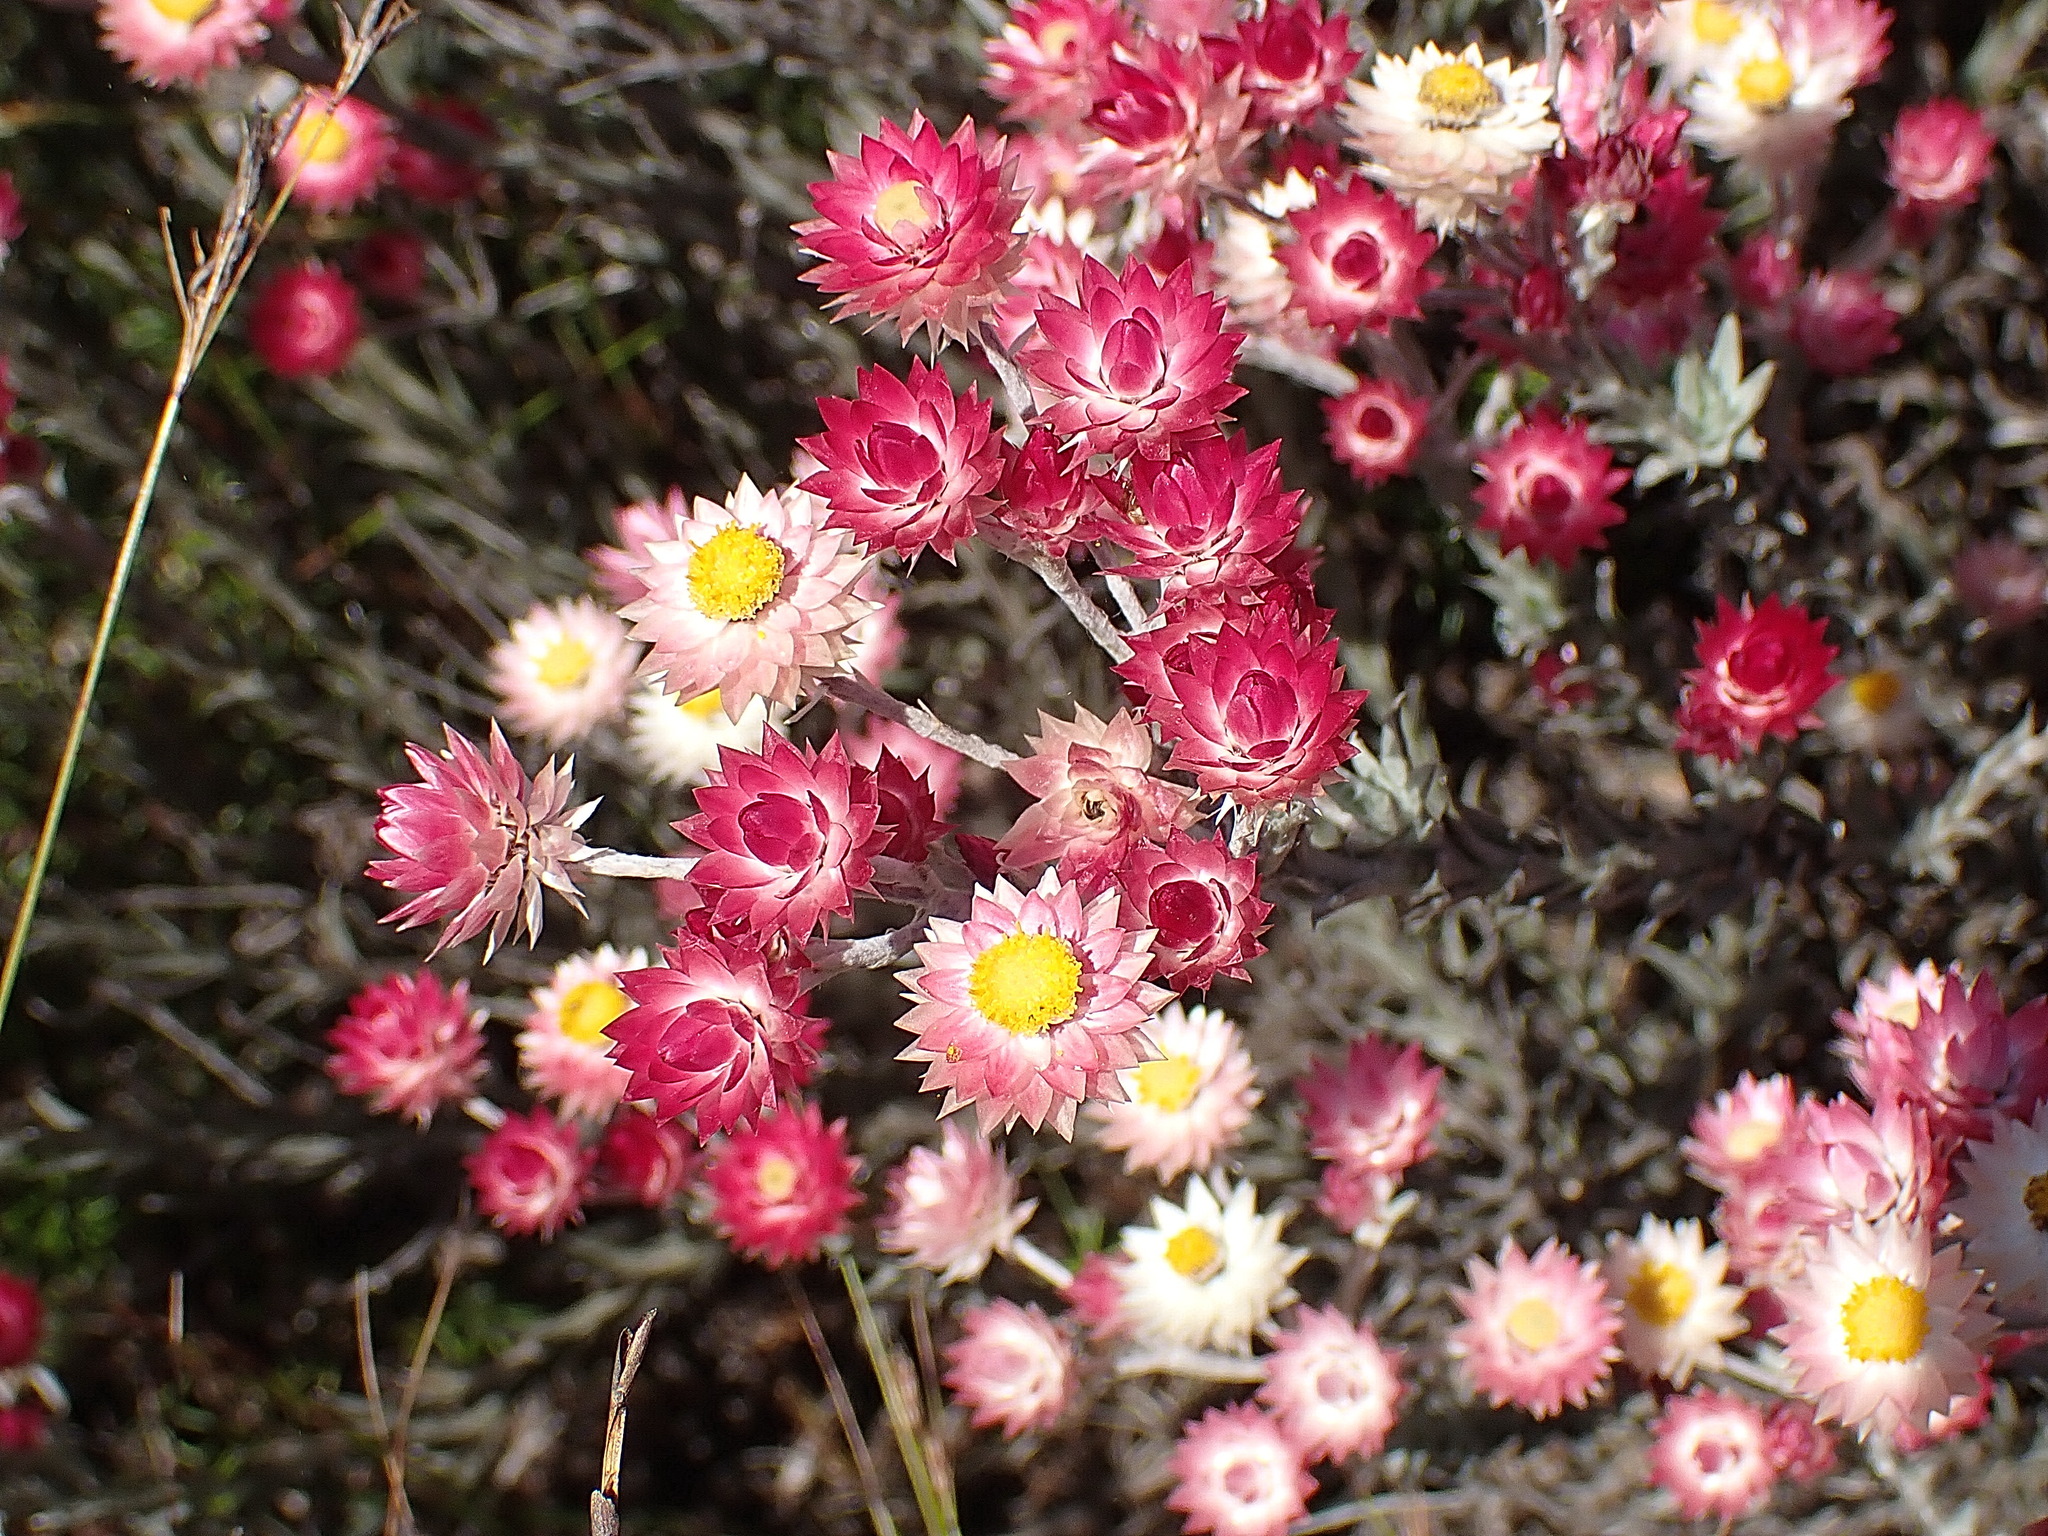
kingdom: Plantae
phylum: Tracheophyta
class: Magnoliopsida
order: Asterales
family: Asteraceae
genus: Achyranthemum
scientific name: Achyranthemum paniculatum
